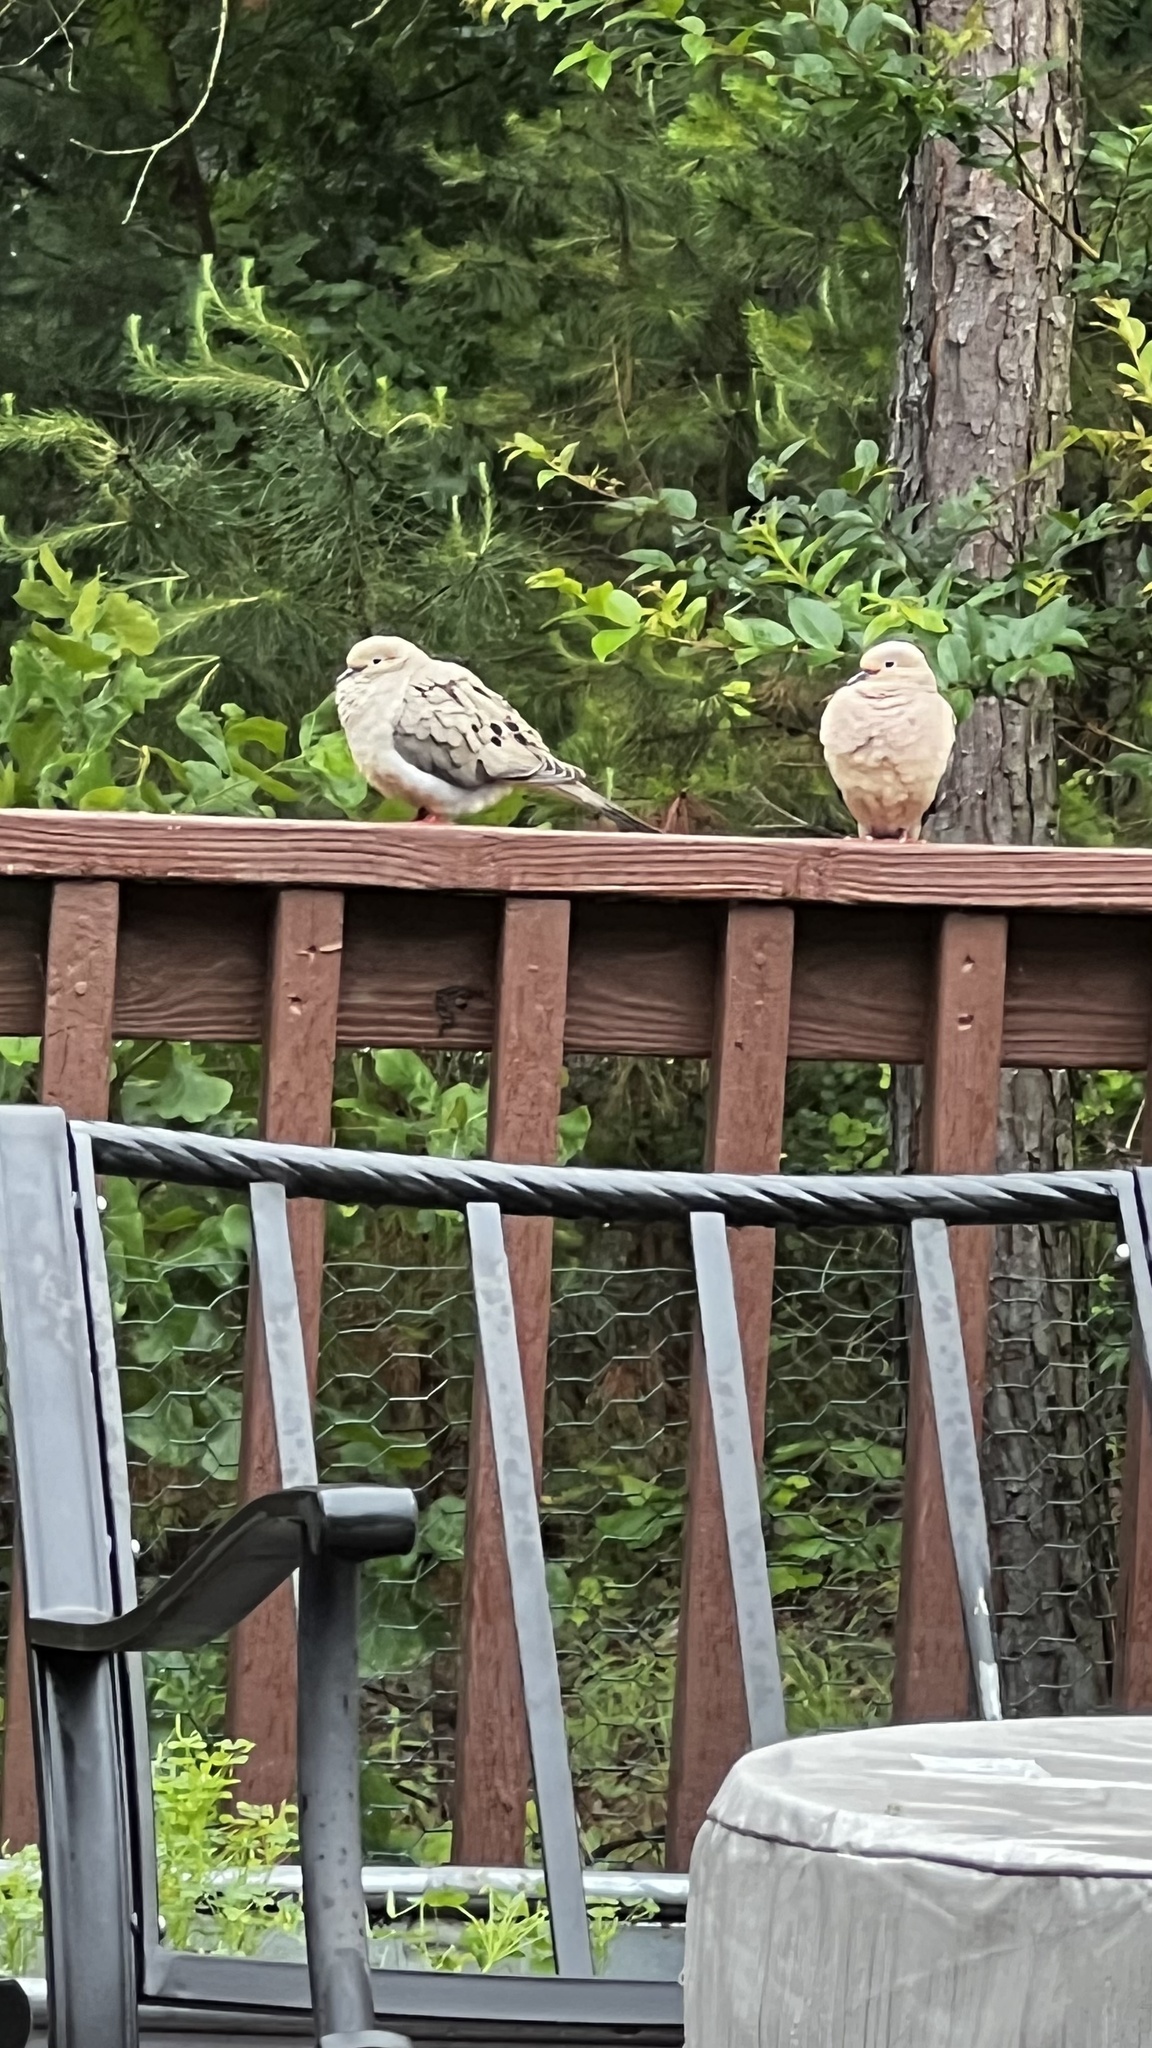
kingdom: Animalia
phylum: Chordata
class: Aves
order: Columbiformes
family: Columbidae
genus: Zenaida
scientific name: Zenaida macroura
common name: Mourning dove
